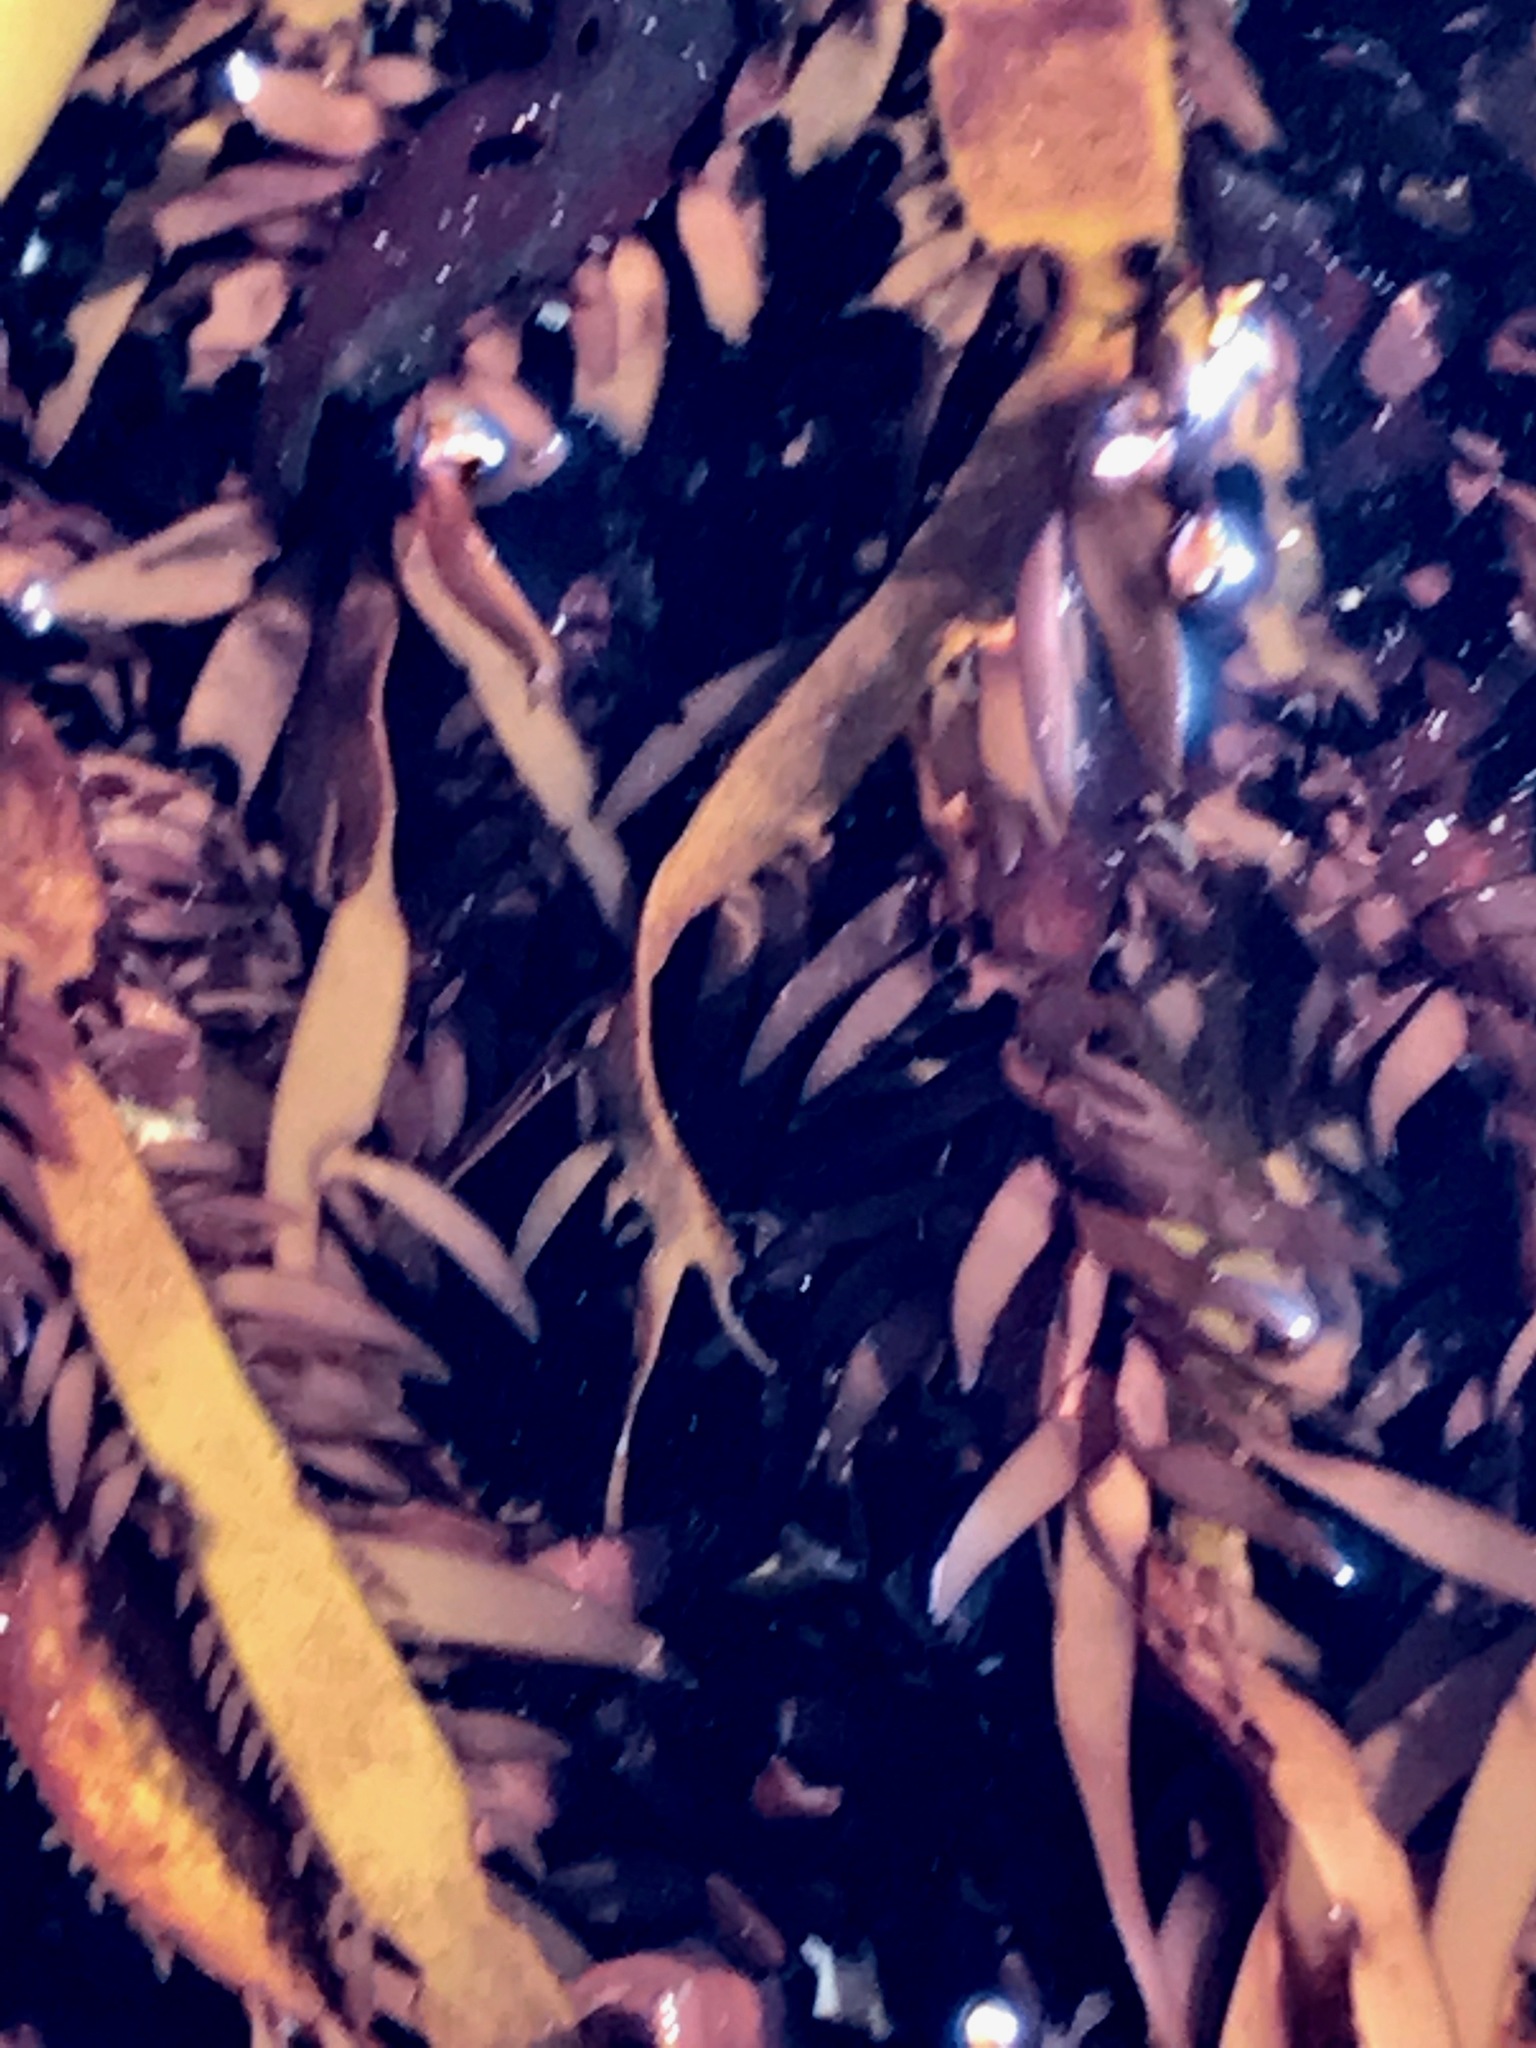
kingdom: Plantae
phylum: Rhodophyta
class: Florideophyceae
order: Halymeniales
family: Halymeniaceae
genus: Grateloupia
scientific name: Grateloupia Prionitis lanceolata
